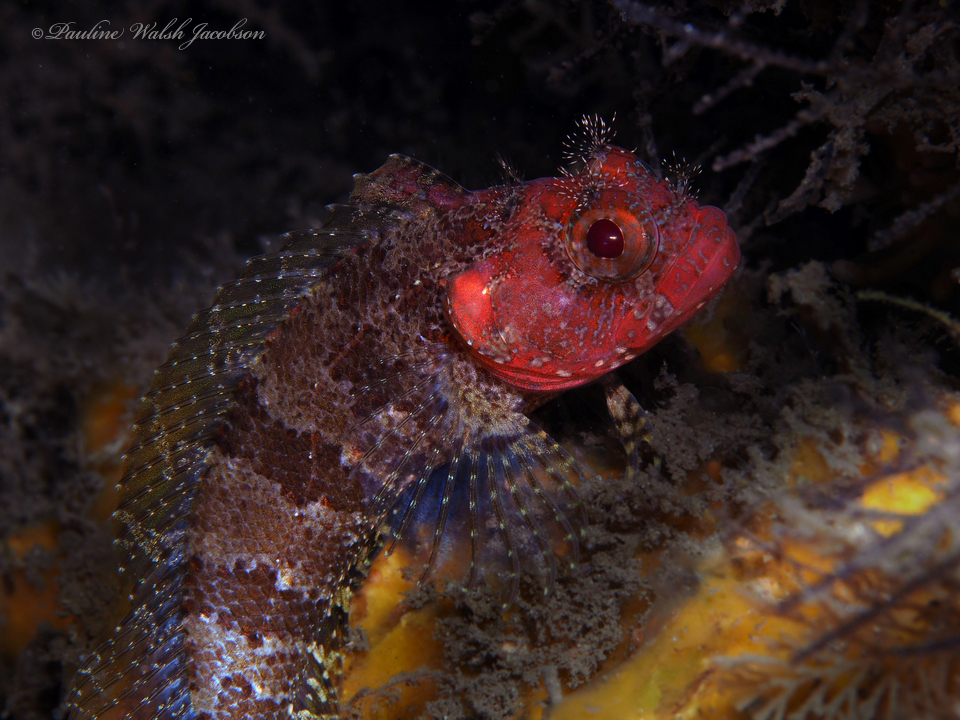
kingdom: Animalia
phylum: Chordata
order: Perciformes
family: Labrisomidae
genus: Gobioclinus
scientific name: Gobioclinus kalisherae
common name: Downy blenny
